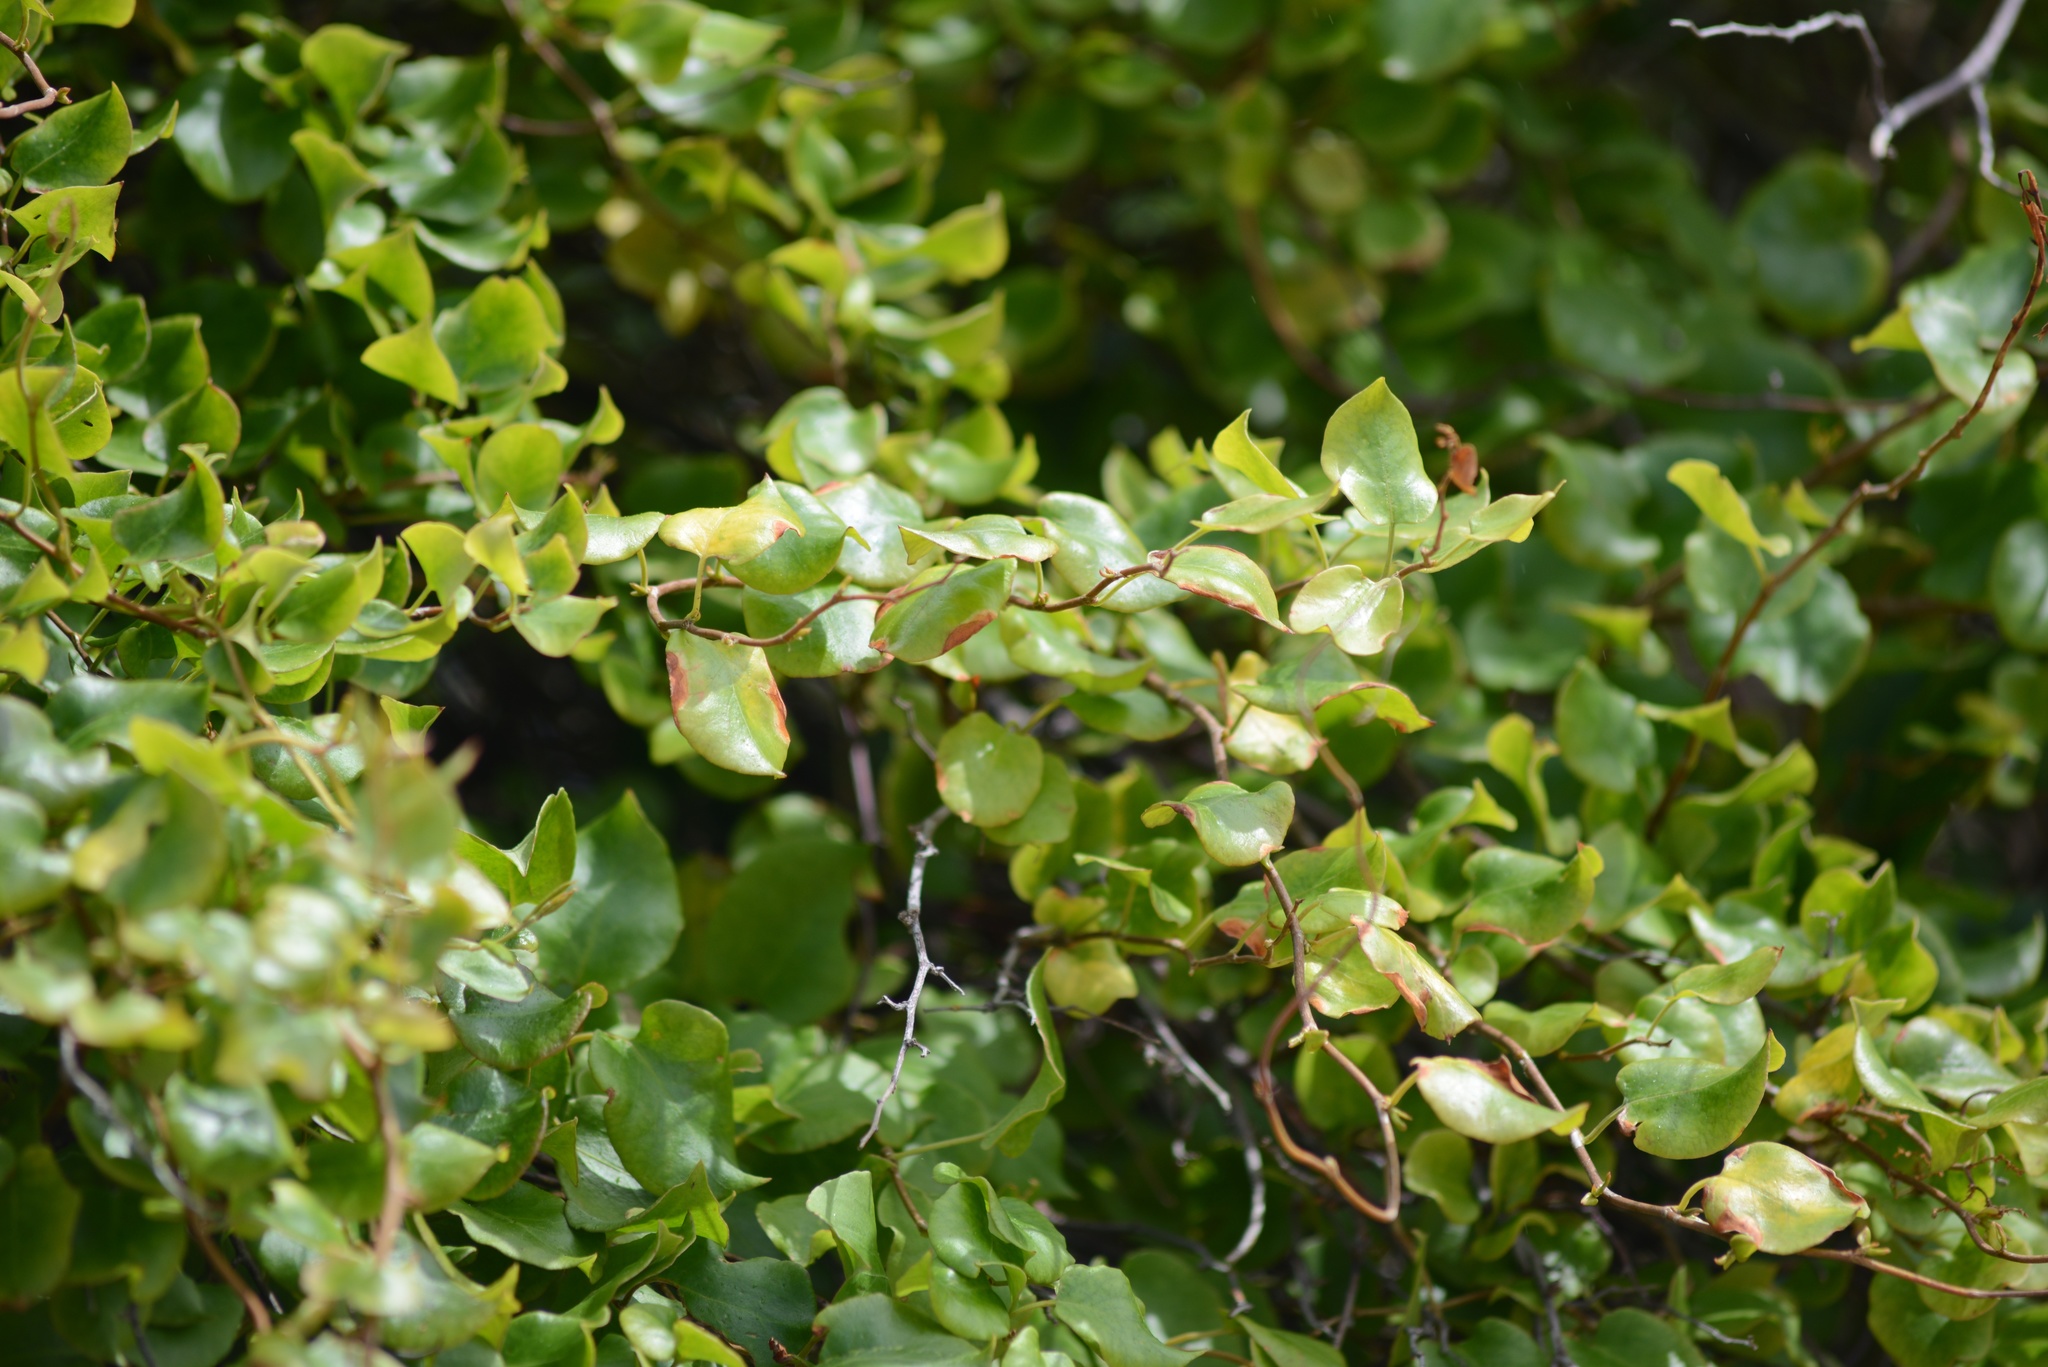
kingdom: Plantae
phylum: Tracheophyta
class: Magnoliopsida
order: Caryophyllales
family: Polygonaceae
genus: Muehlenbeckia
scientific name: Muehlenbeckia
